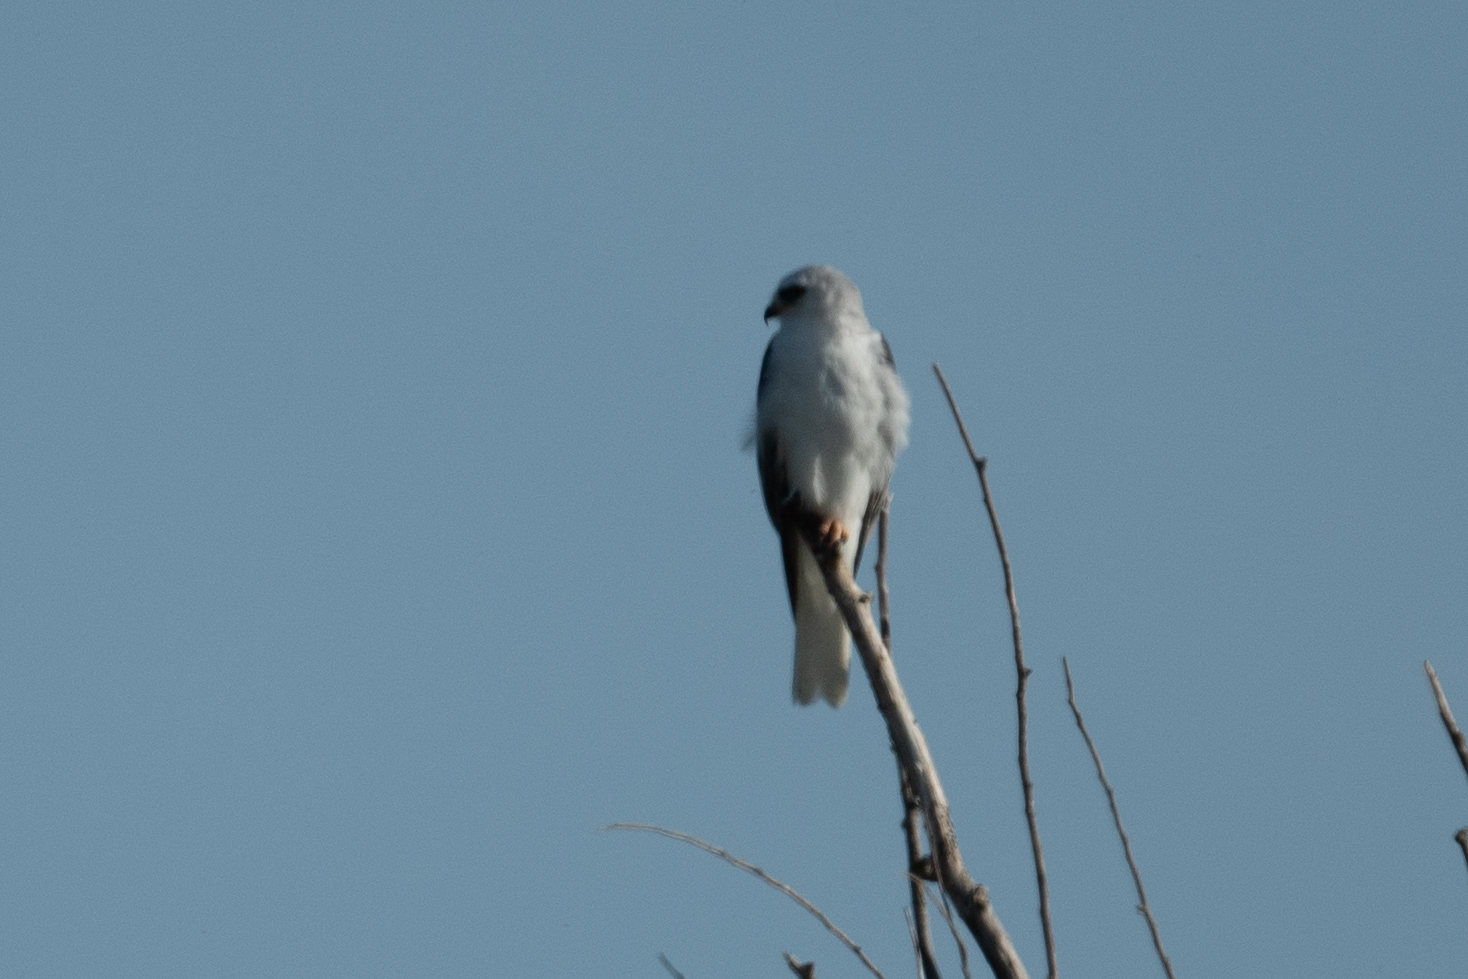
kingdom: Animalia
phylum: Chordata
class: Aves
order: Accipitriformes
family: Accipitridae
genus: Elanus
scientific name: Elanus leucurus
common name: White-tailed kite
